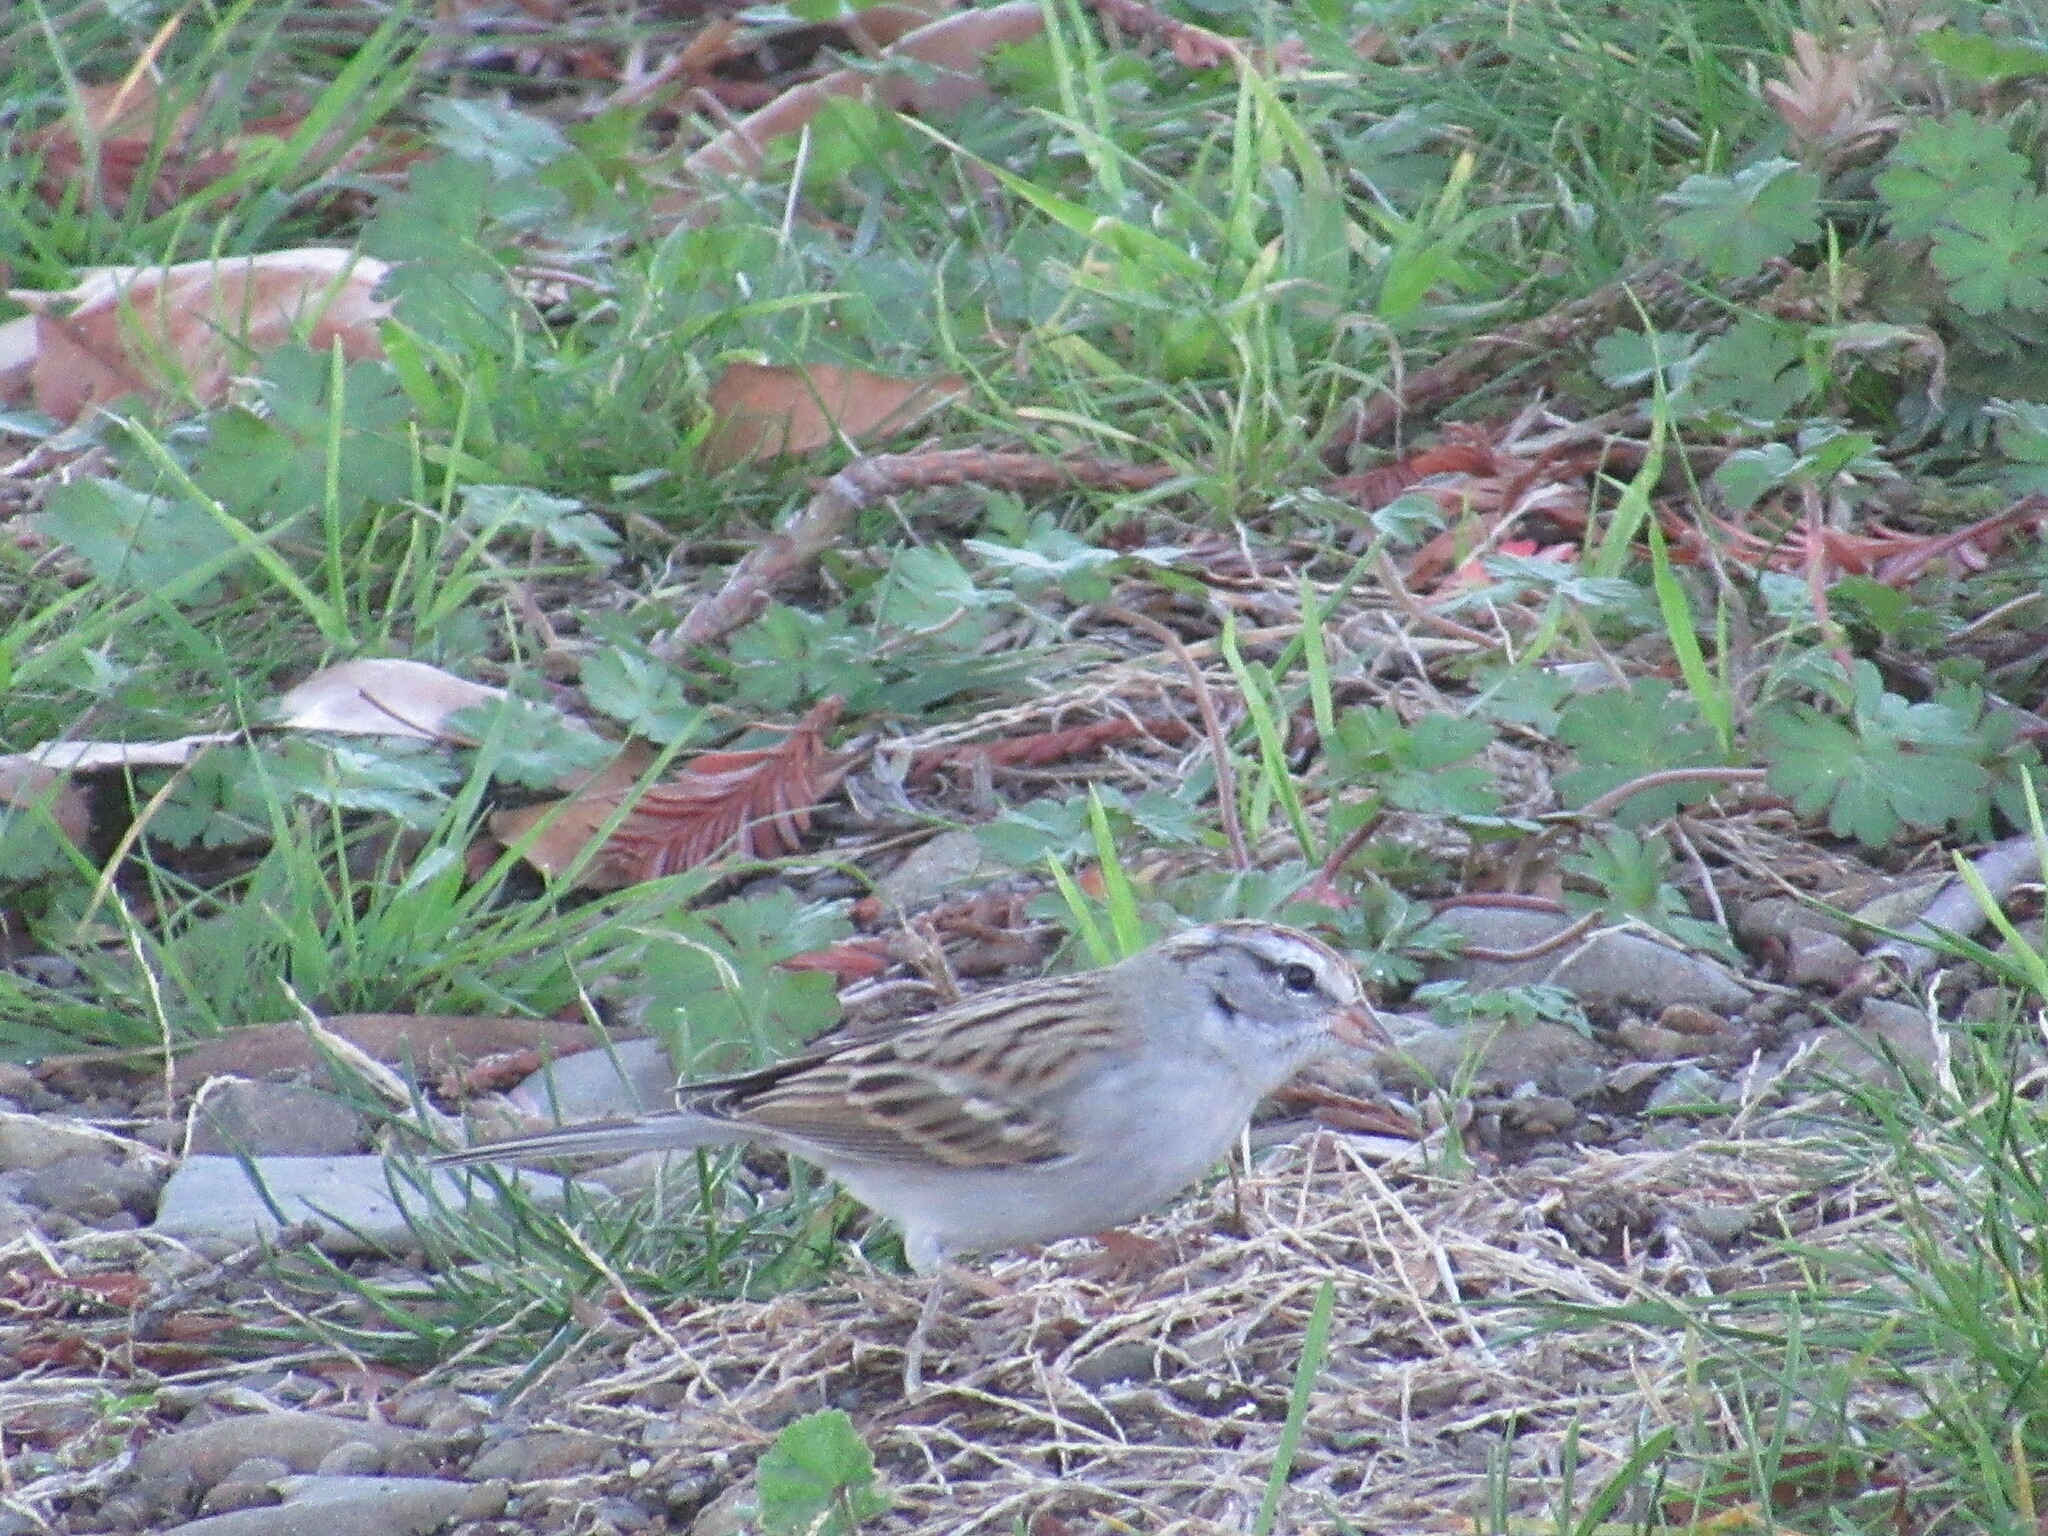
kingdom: Animalia
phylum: Chordata
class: Aves
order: Passeriformes
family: Passerellidae
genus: Spizella
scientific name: Spizella passerina
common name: Chipping sparrow
